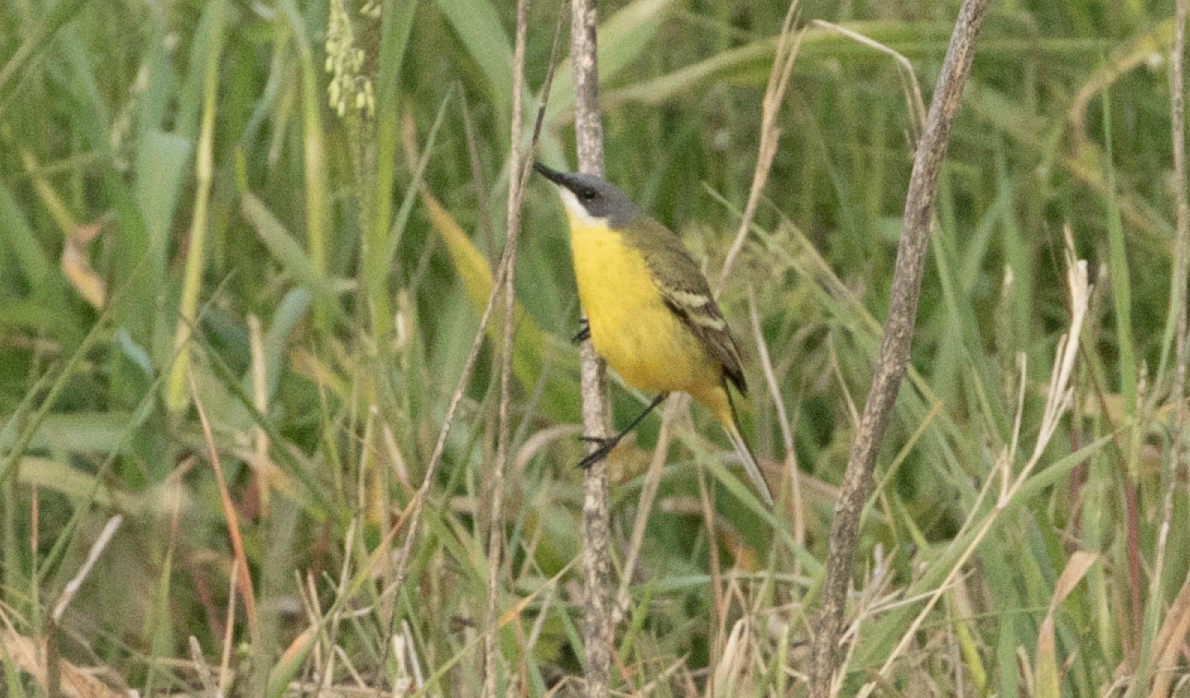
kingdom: Animalia
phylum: Chordata
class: Aves
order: Passeriformes
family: Motacillidae
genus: Motacilla
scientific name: Motacilla flava
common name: Western yellow wagtail
